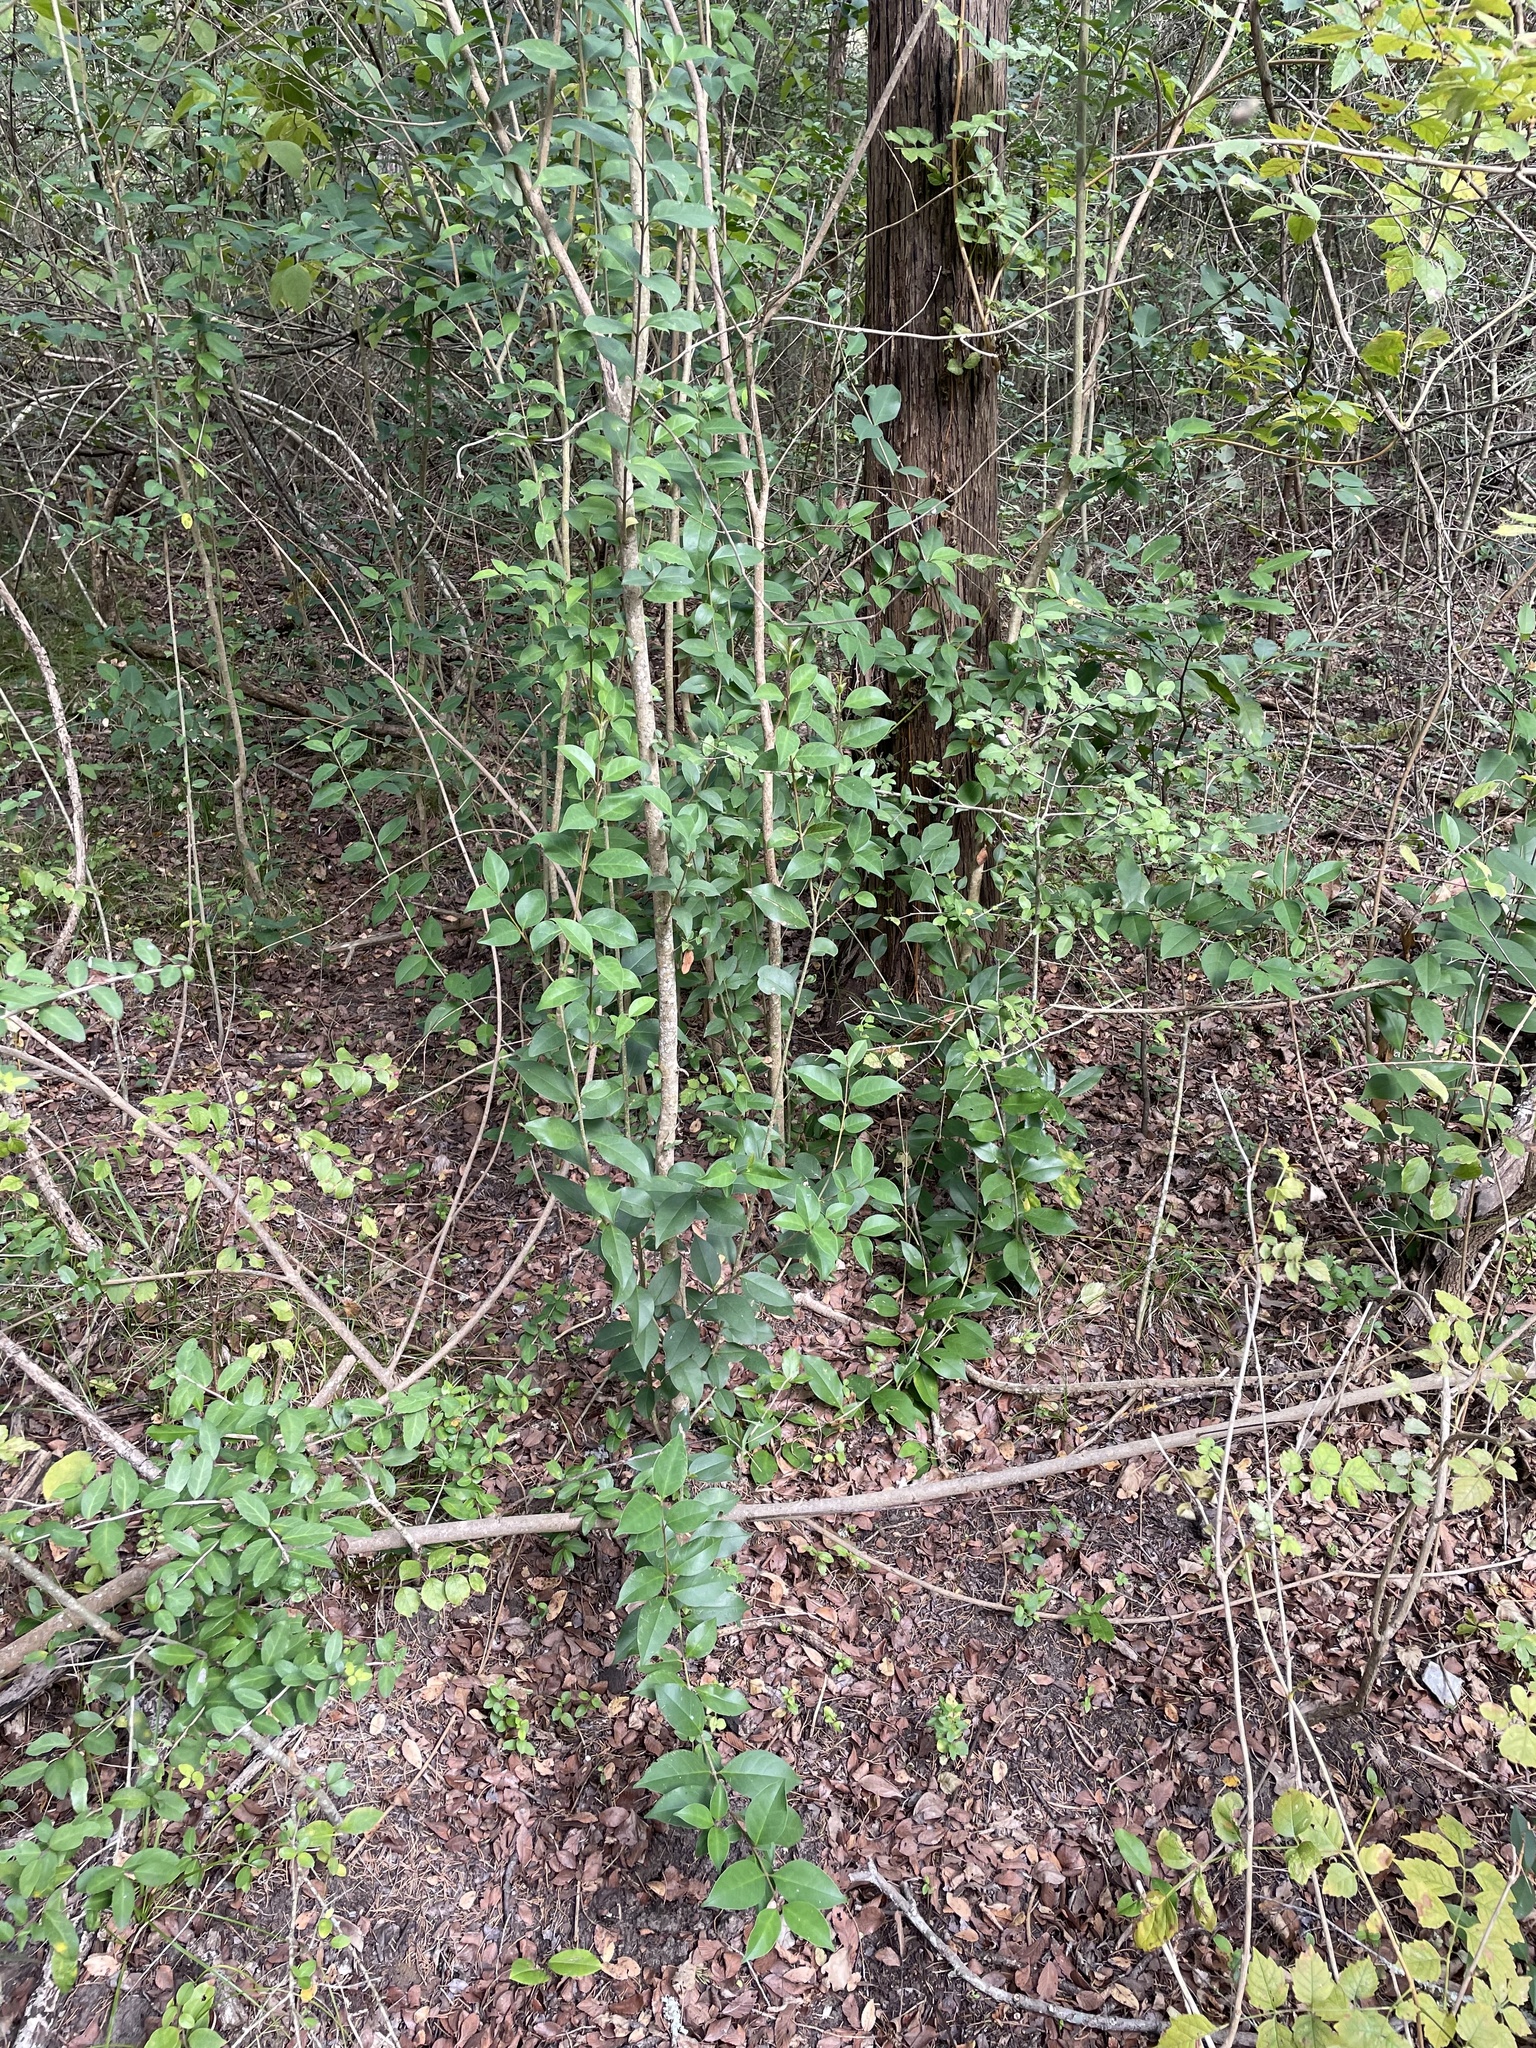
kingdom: Plantae
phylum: Tracheophyta
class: Magnoliopsida
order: Lamiales
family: Oleaceae
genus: Ligustrum
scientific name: Ligustrum lucidum
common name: Glossy privet
